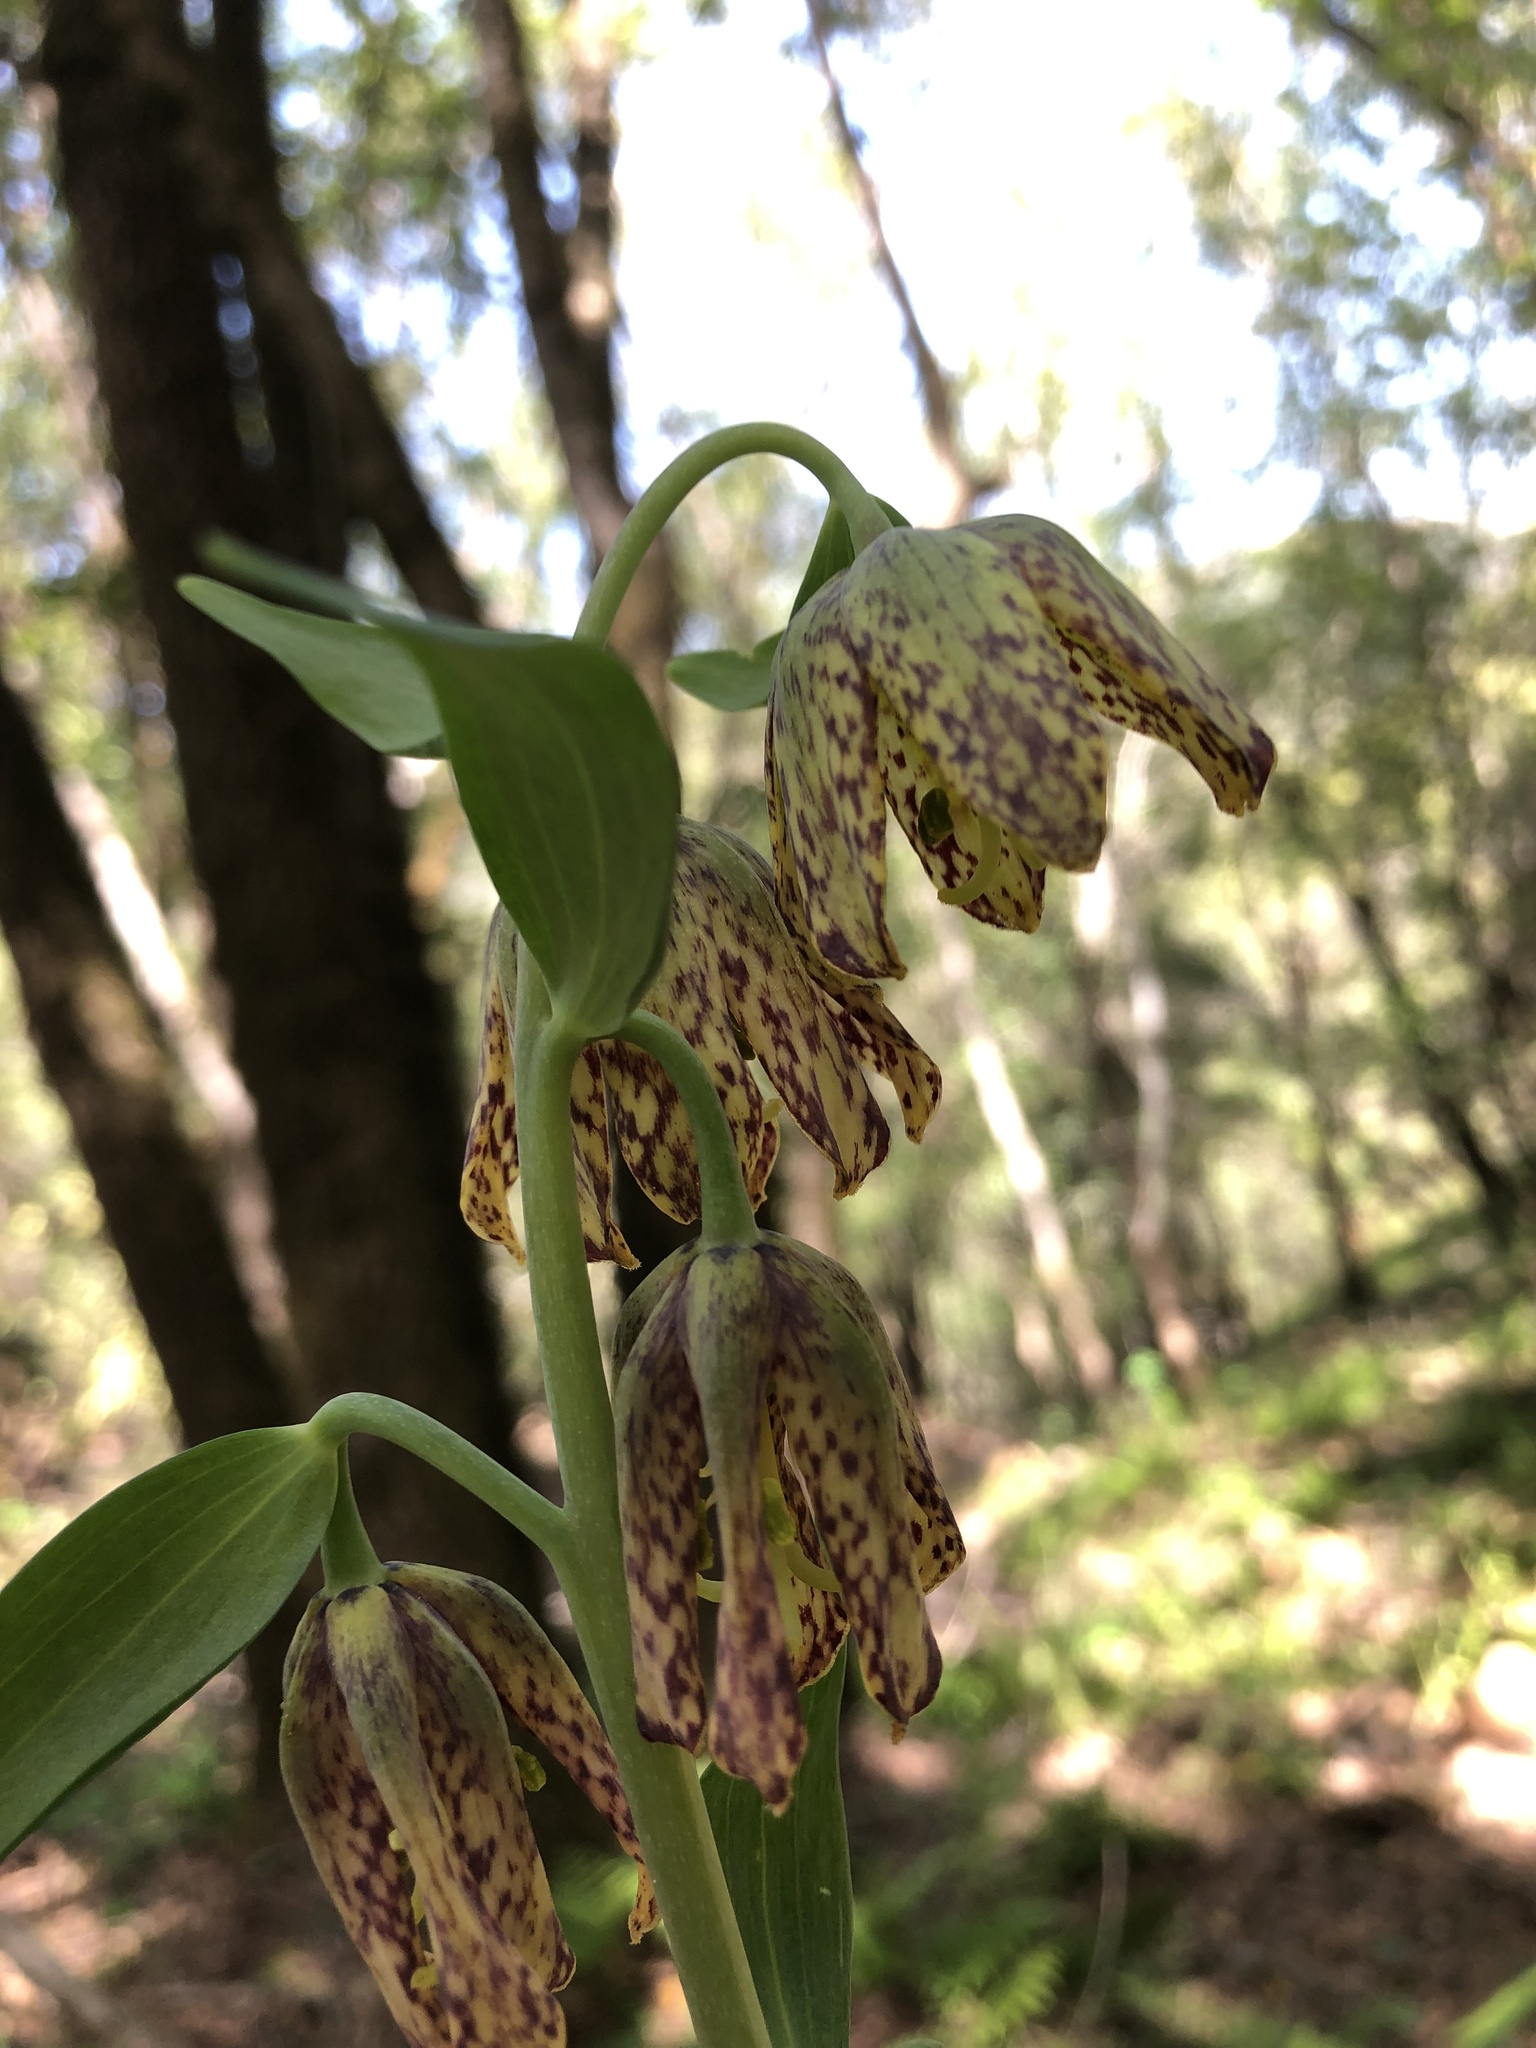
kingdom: Plantae
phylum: Tracheophyta
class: Liliopsida
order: Liliales
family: Liliaceae
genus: Fritillaria
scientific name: Fritillaria affinis
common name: Ojai fritillary
